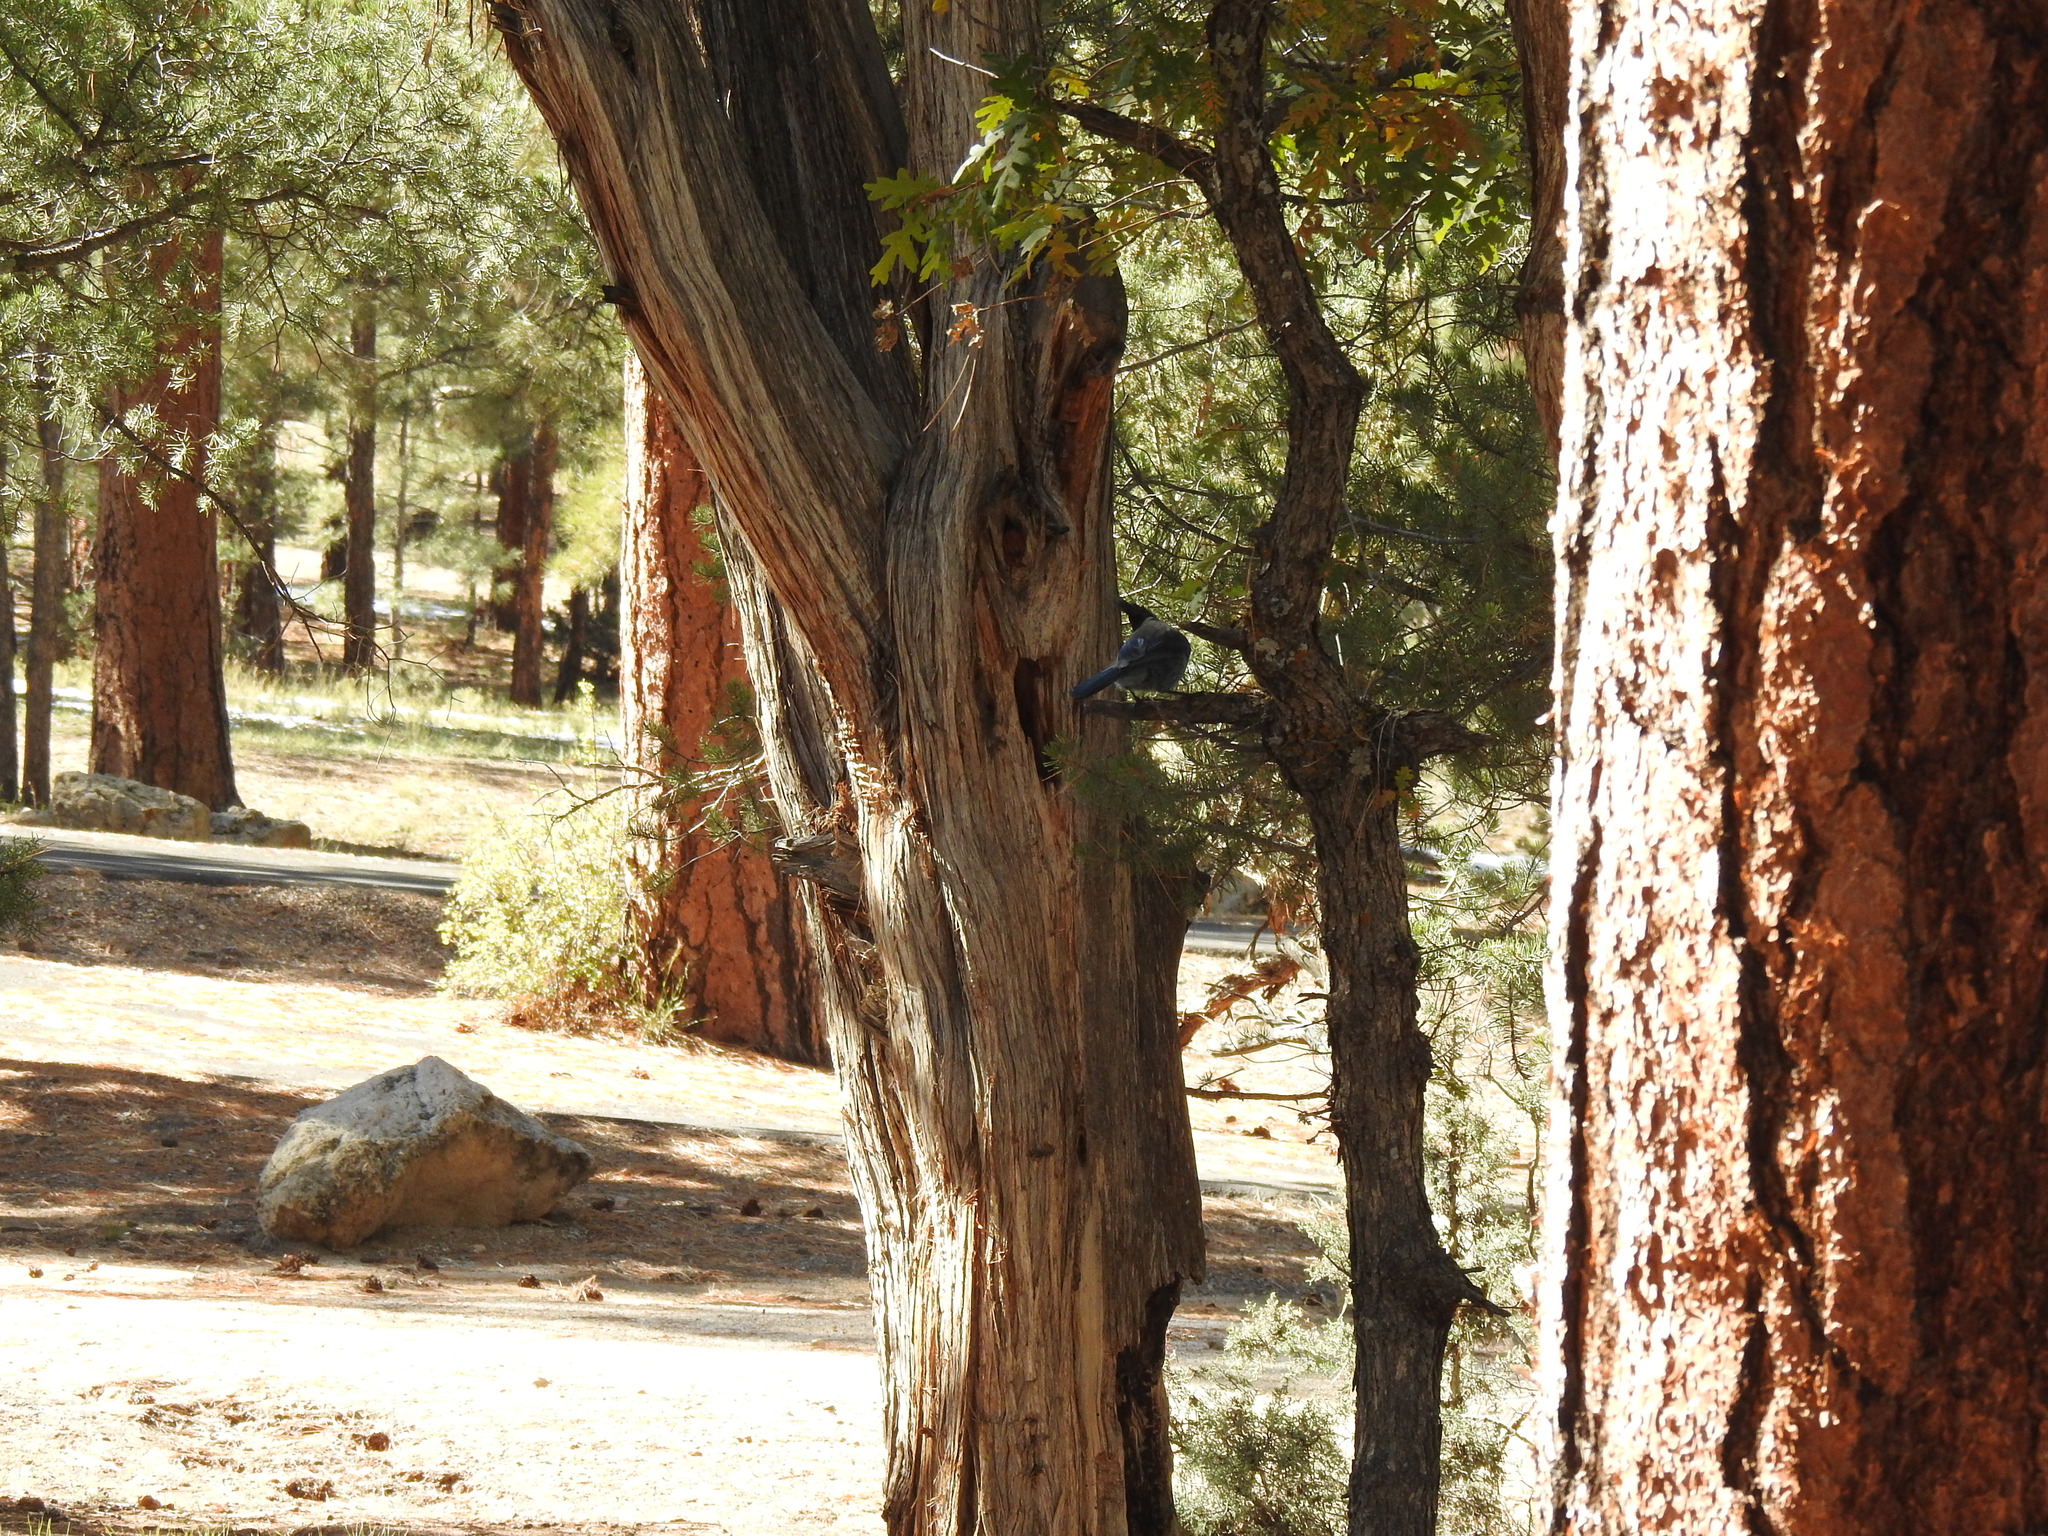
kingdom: Animalia
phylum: Chordata
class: Aves
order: Passeriformes
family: Corvidae
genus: Cyanocitta
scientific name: Cyanocitta stelleri
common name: Steller's jay
